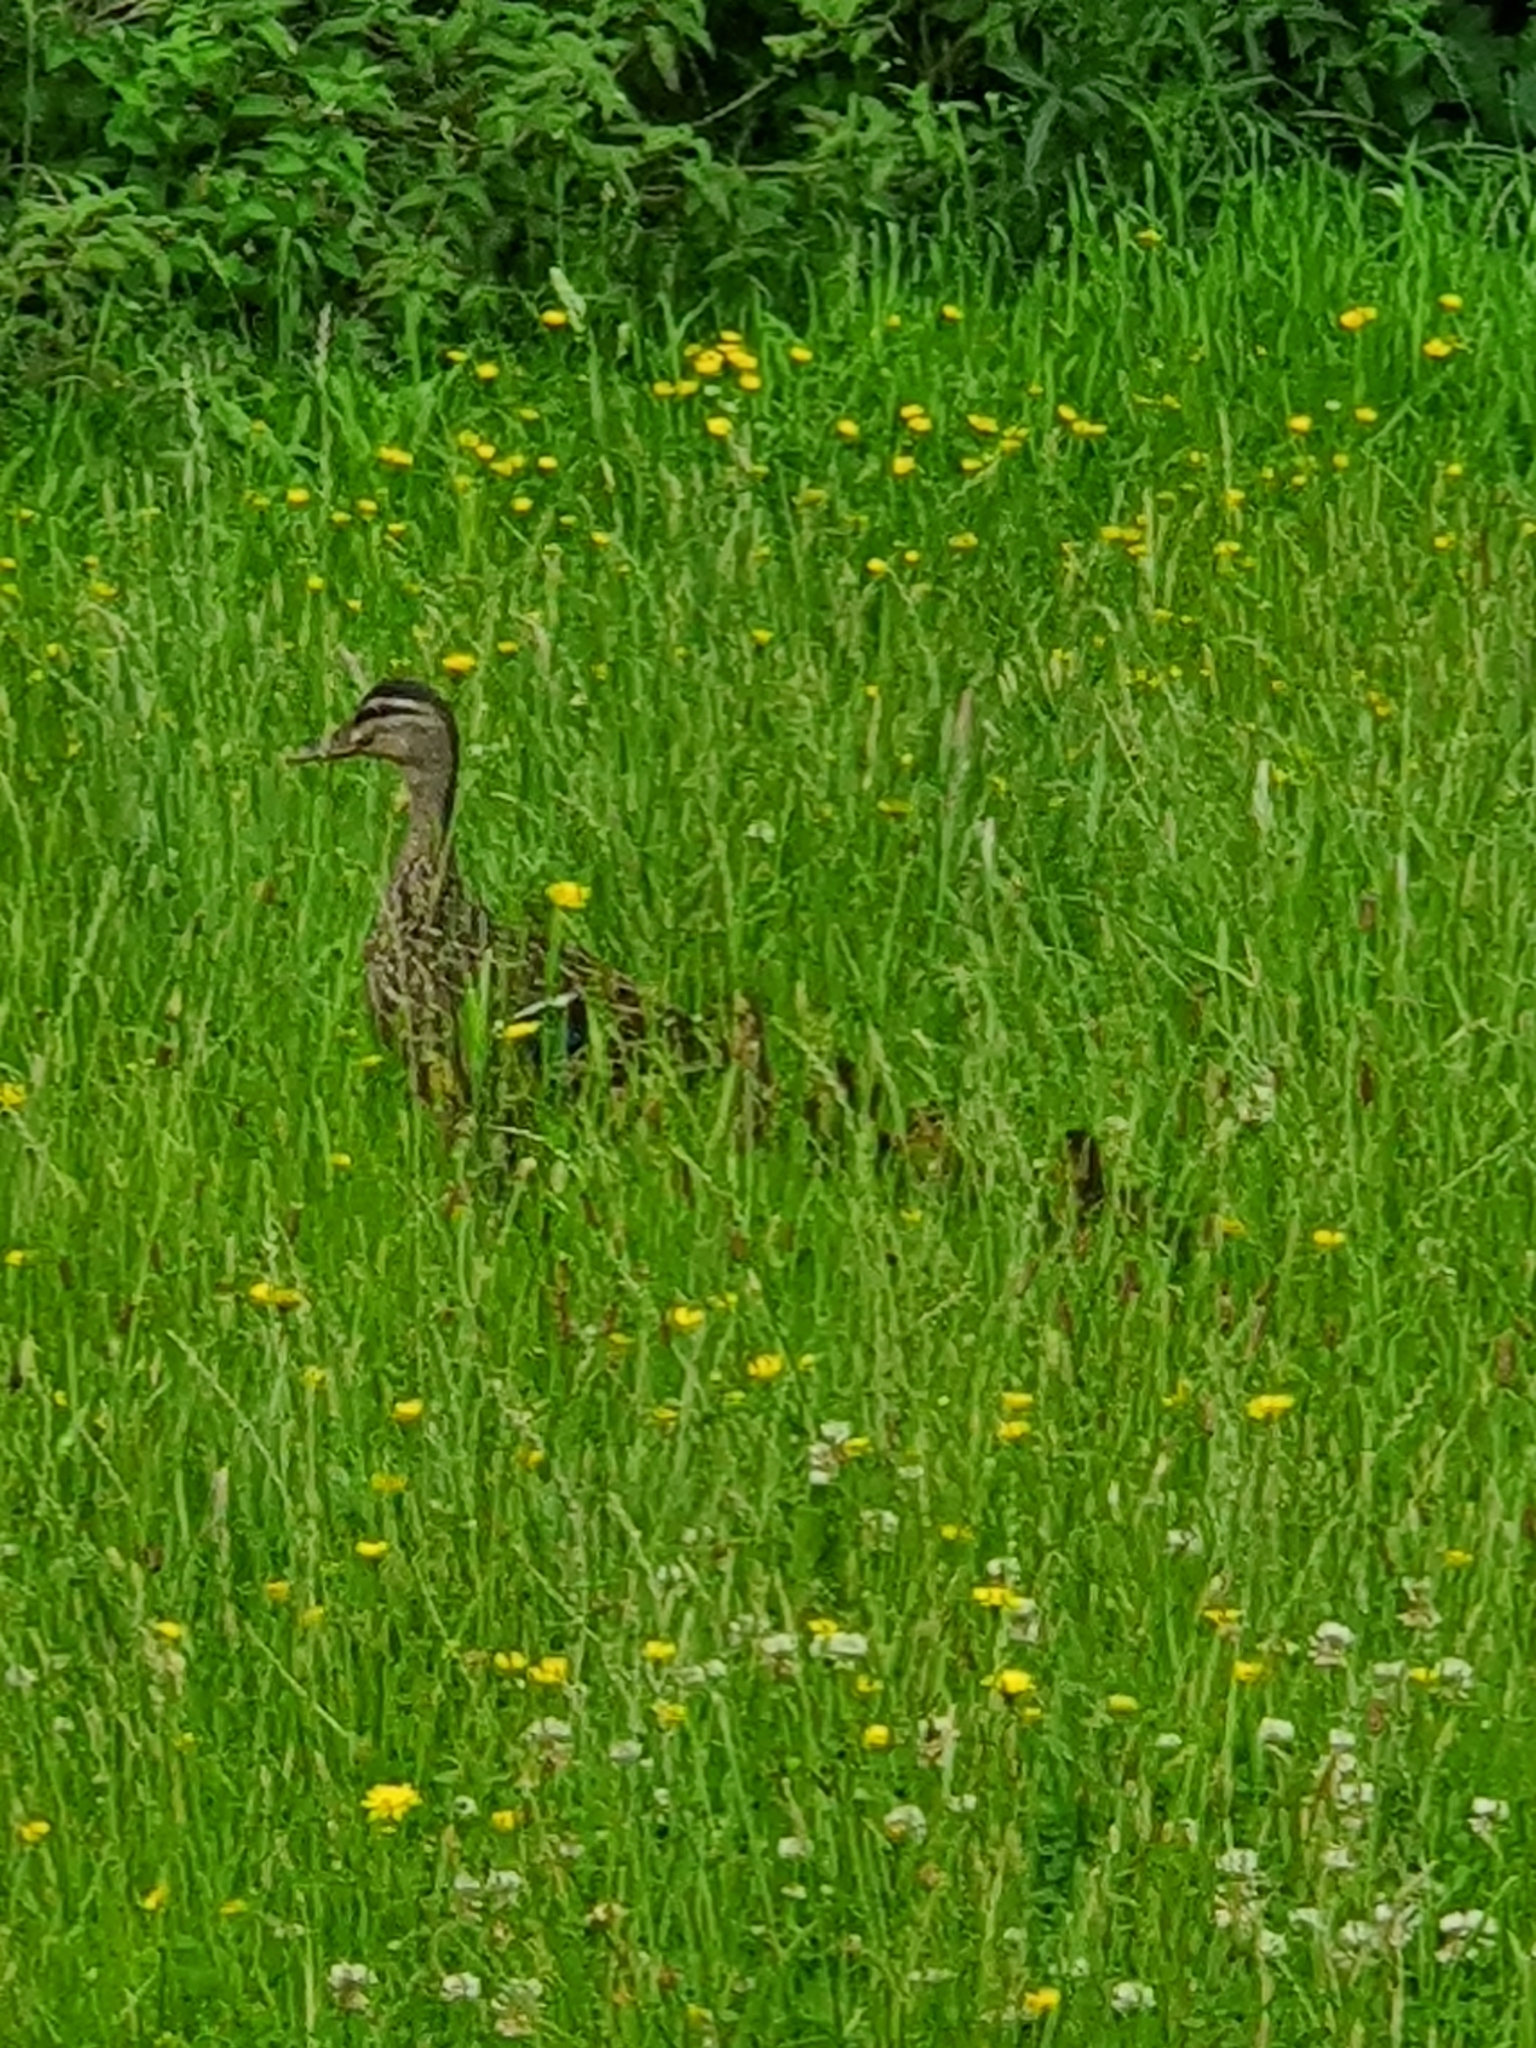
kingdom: Animalia
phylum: Chordata
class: Aves
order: Anseriformes
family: Anatidae
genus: Anas
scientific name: Anas
